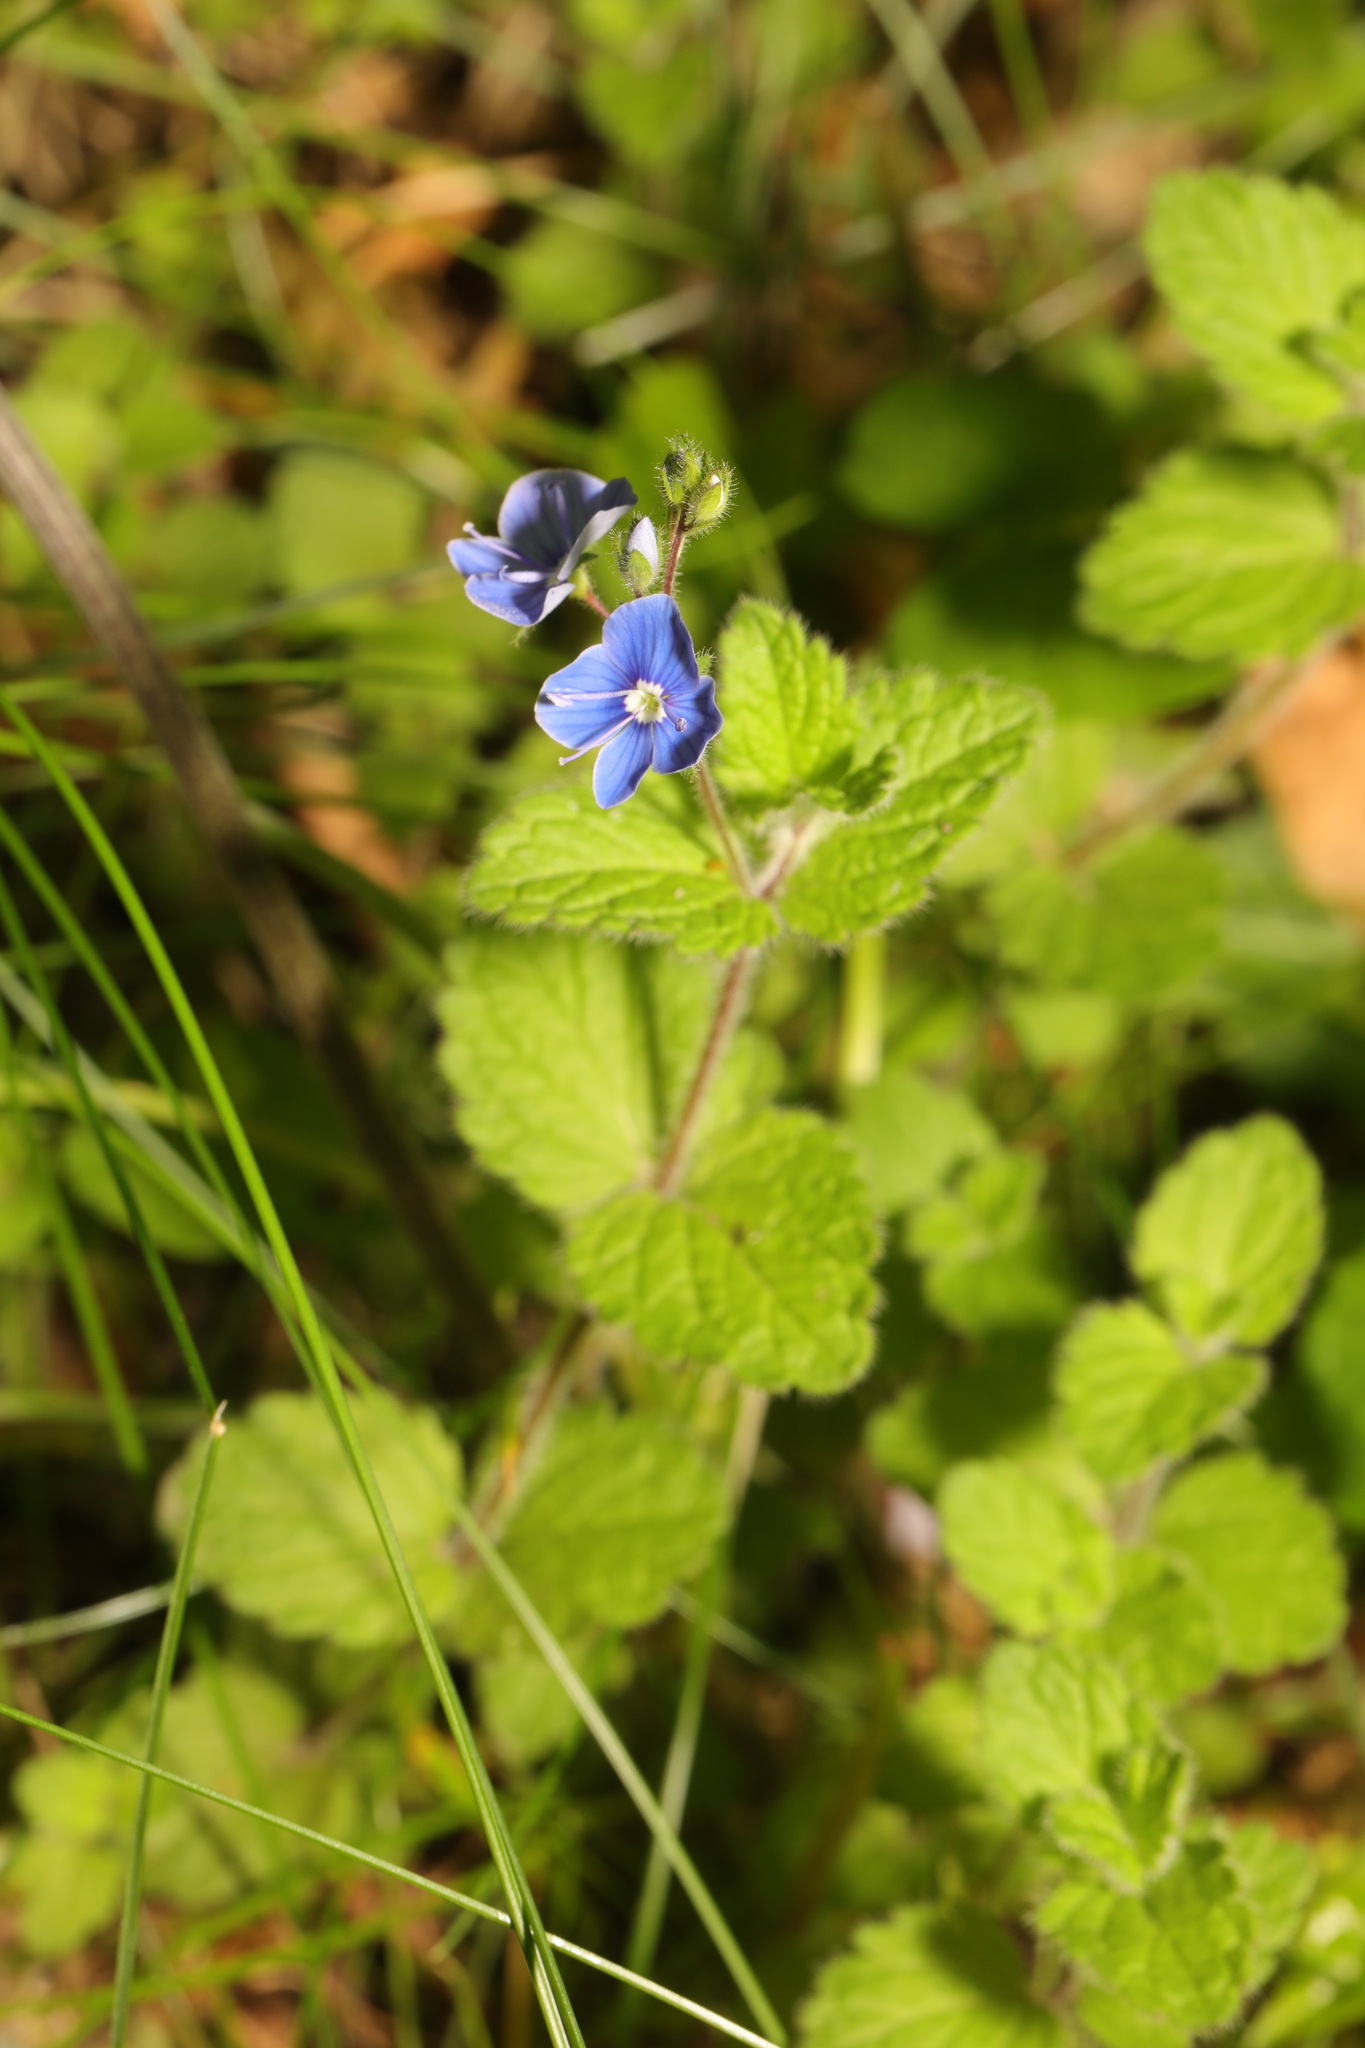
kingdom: Plantae
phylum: Tracheophyta
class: Magnoliopsida
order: Lamiales
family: Plantaginaceae
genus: Veronica
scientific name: Veronica chamaedrys
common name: Germander speedwell
